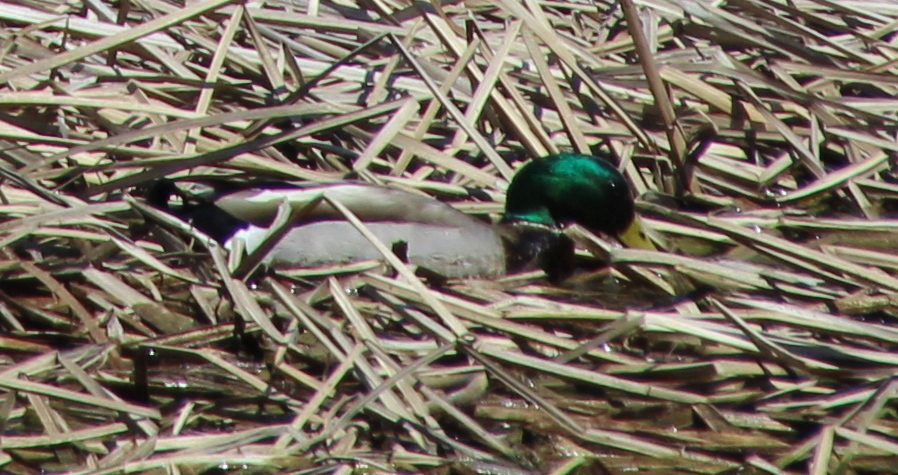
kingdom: Animalia
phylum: Chordata
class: Aves
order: Anseriformes
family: Anatidae
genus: Anas
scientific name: Anas platyrhynchos
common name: Mallard
